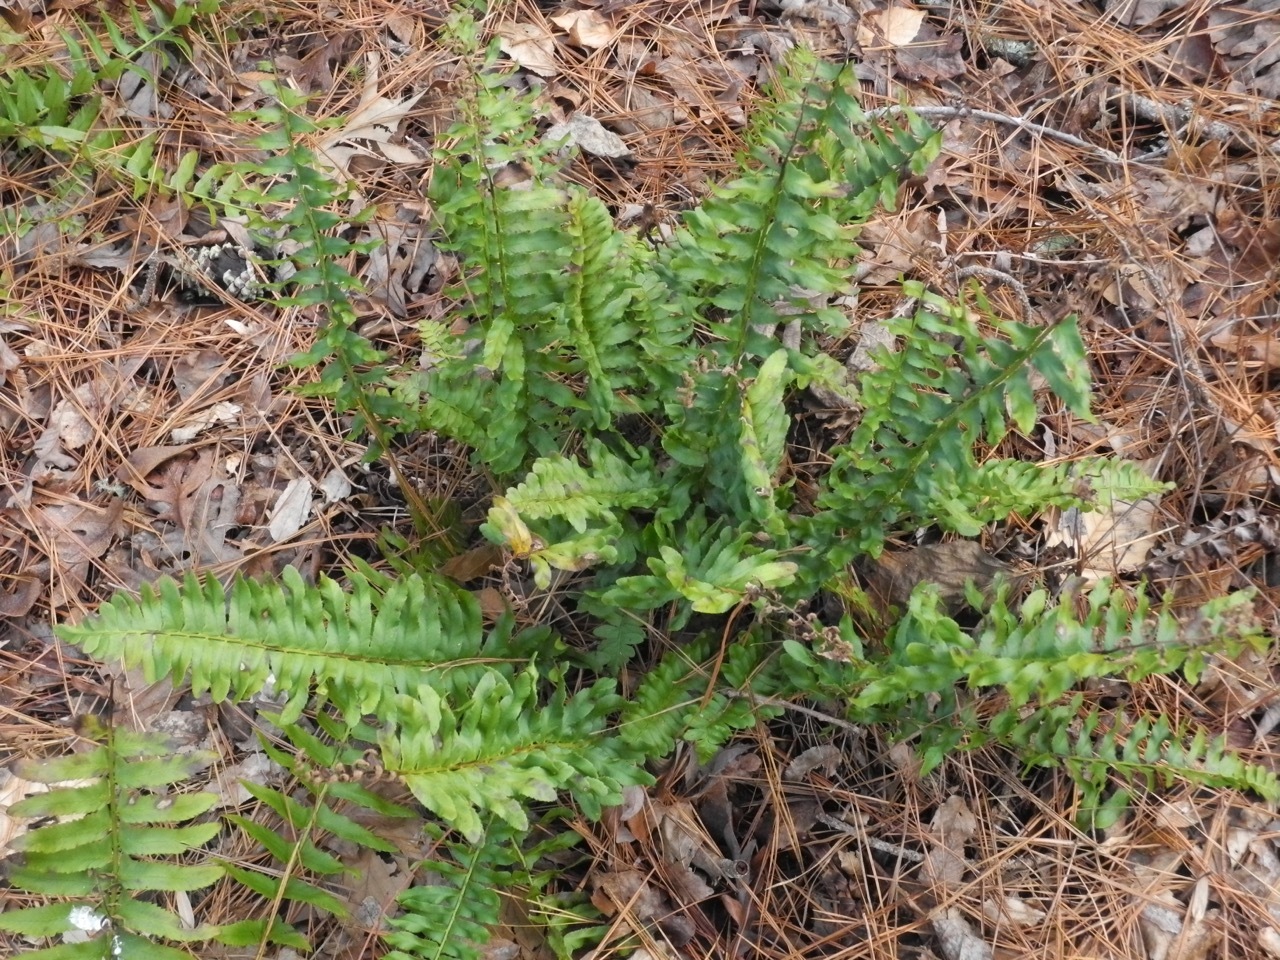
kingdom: Plantae
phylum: Tracheophyta
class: Polypodiopsida
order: Polypodiales
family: Dryopteridaceae
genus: Polystichum
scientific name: Polystichum acrostichoides
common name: Christmas fern
